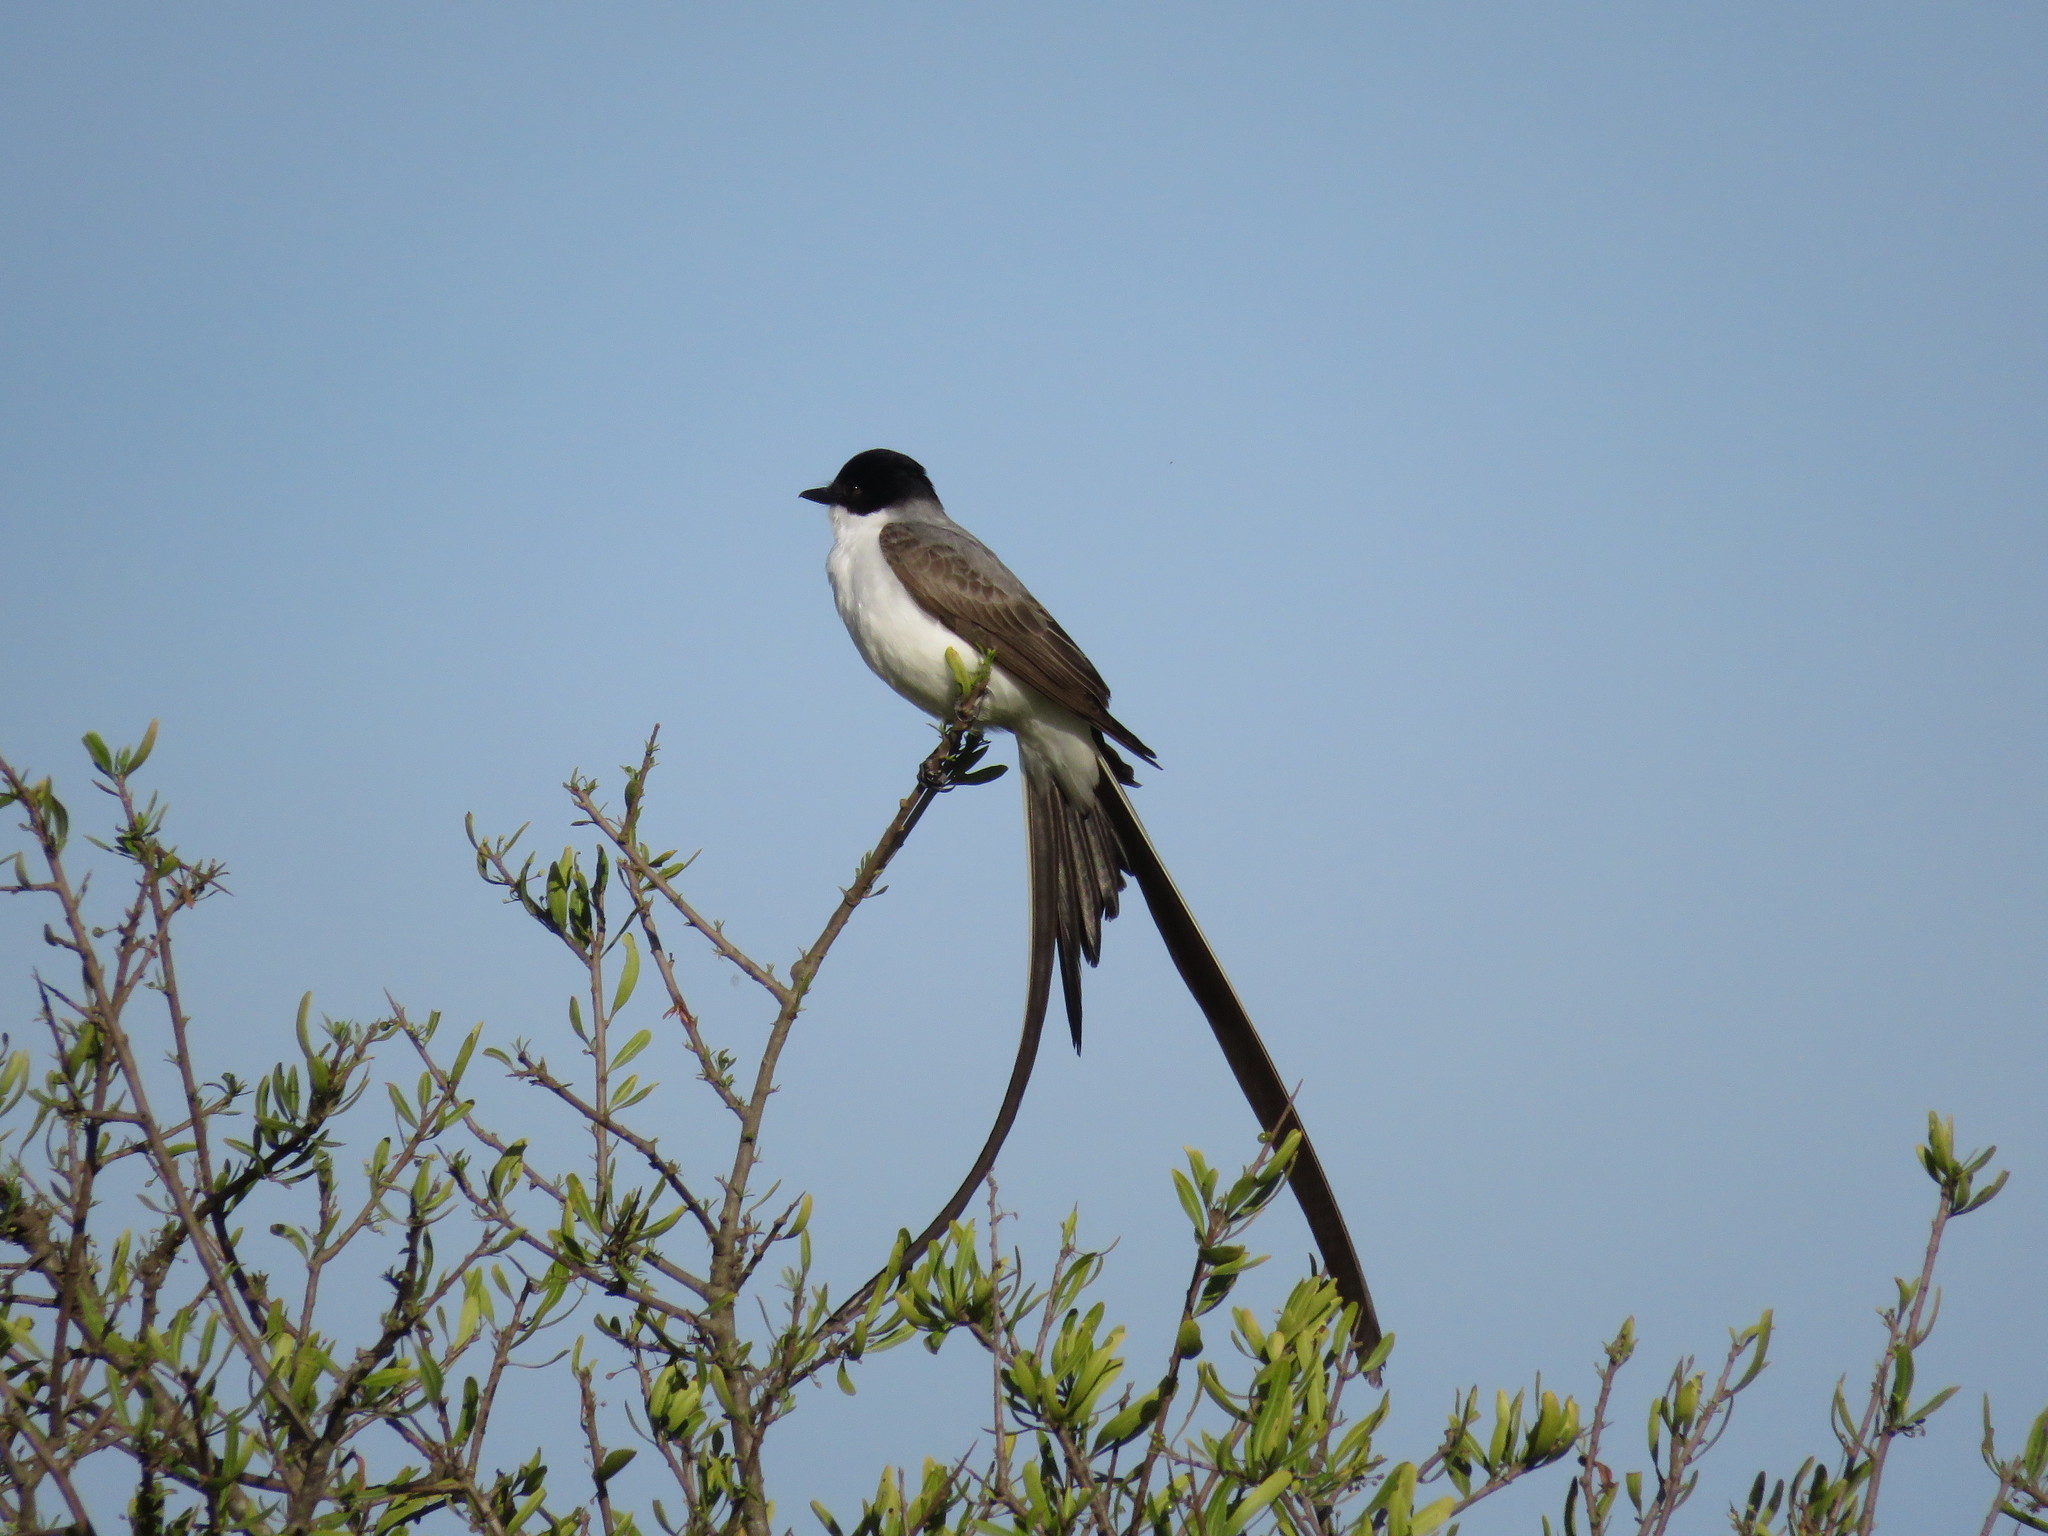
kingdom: Animalia
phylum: Chordata
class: Aves
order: Passeriformes
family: Tyrannidae
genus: Tyrannus
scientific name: Tyrannus savana
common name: Fork-tailed flycatcher
